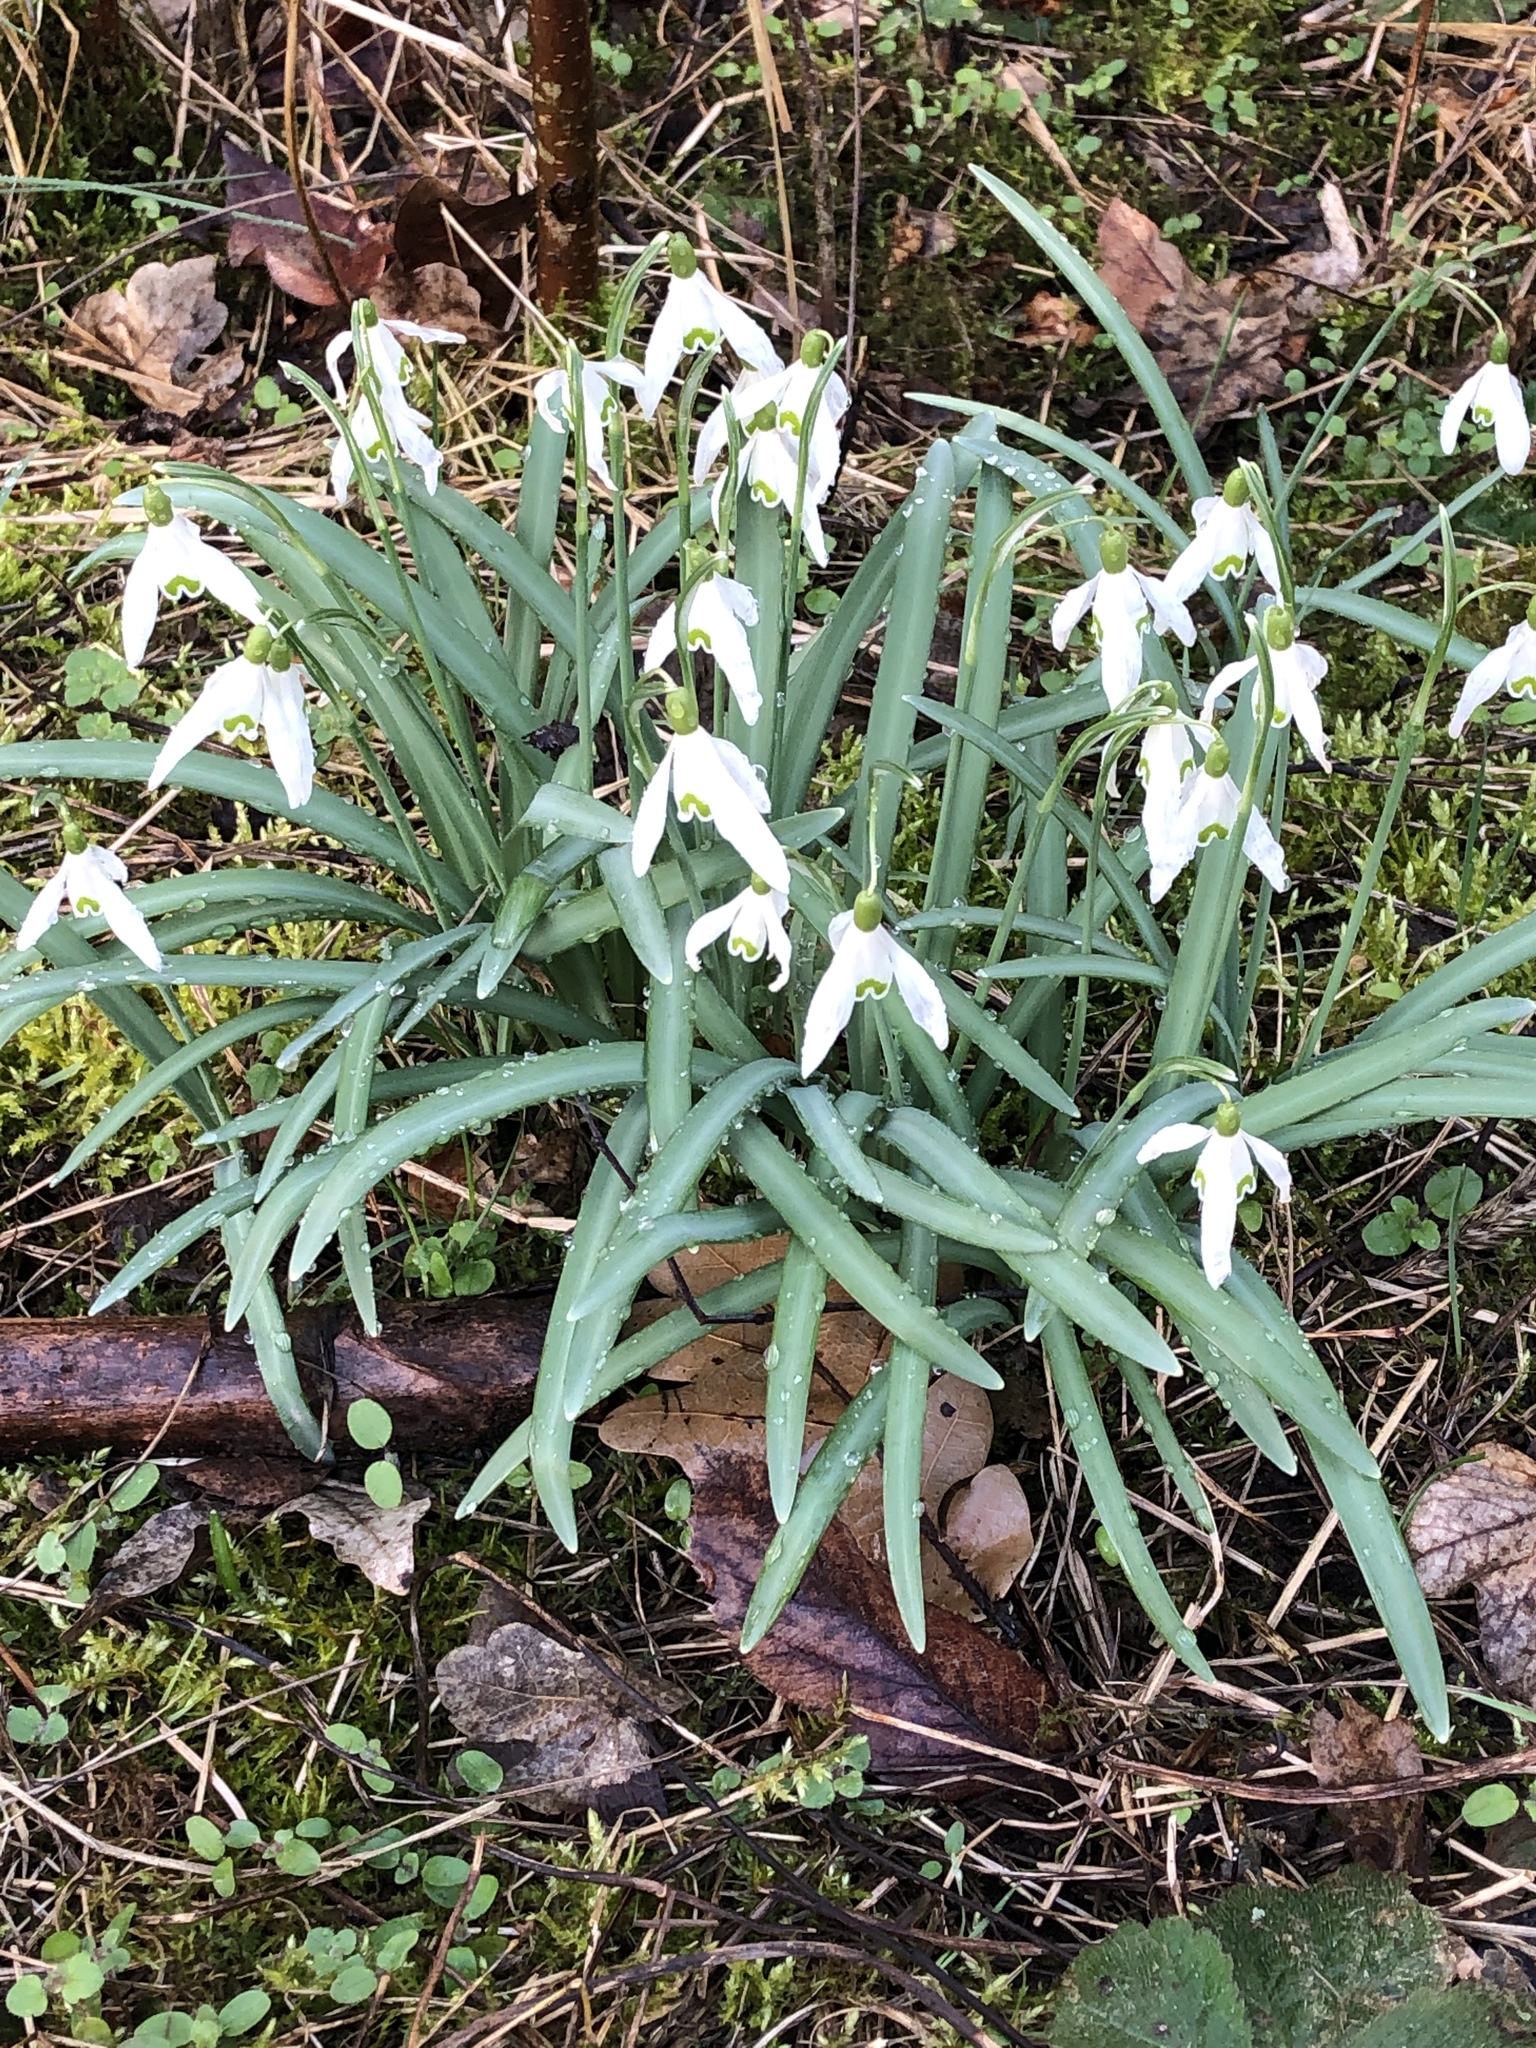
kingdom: Plantae
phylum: Tracheophyta
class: Liliopsida
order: Asparagales
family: Amaryllidaceae
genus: Galanthus
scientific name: Galanthus nivalis
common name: Snowdrop
